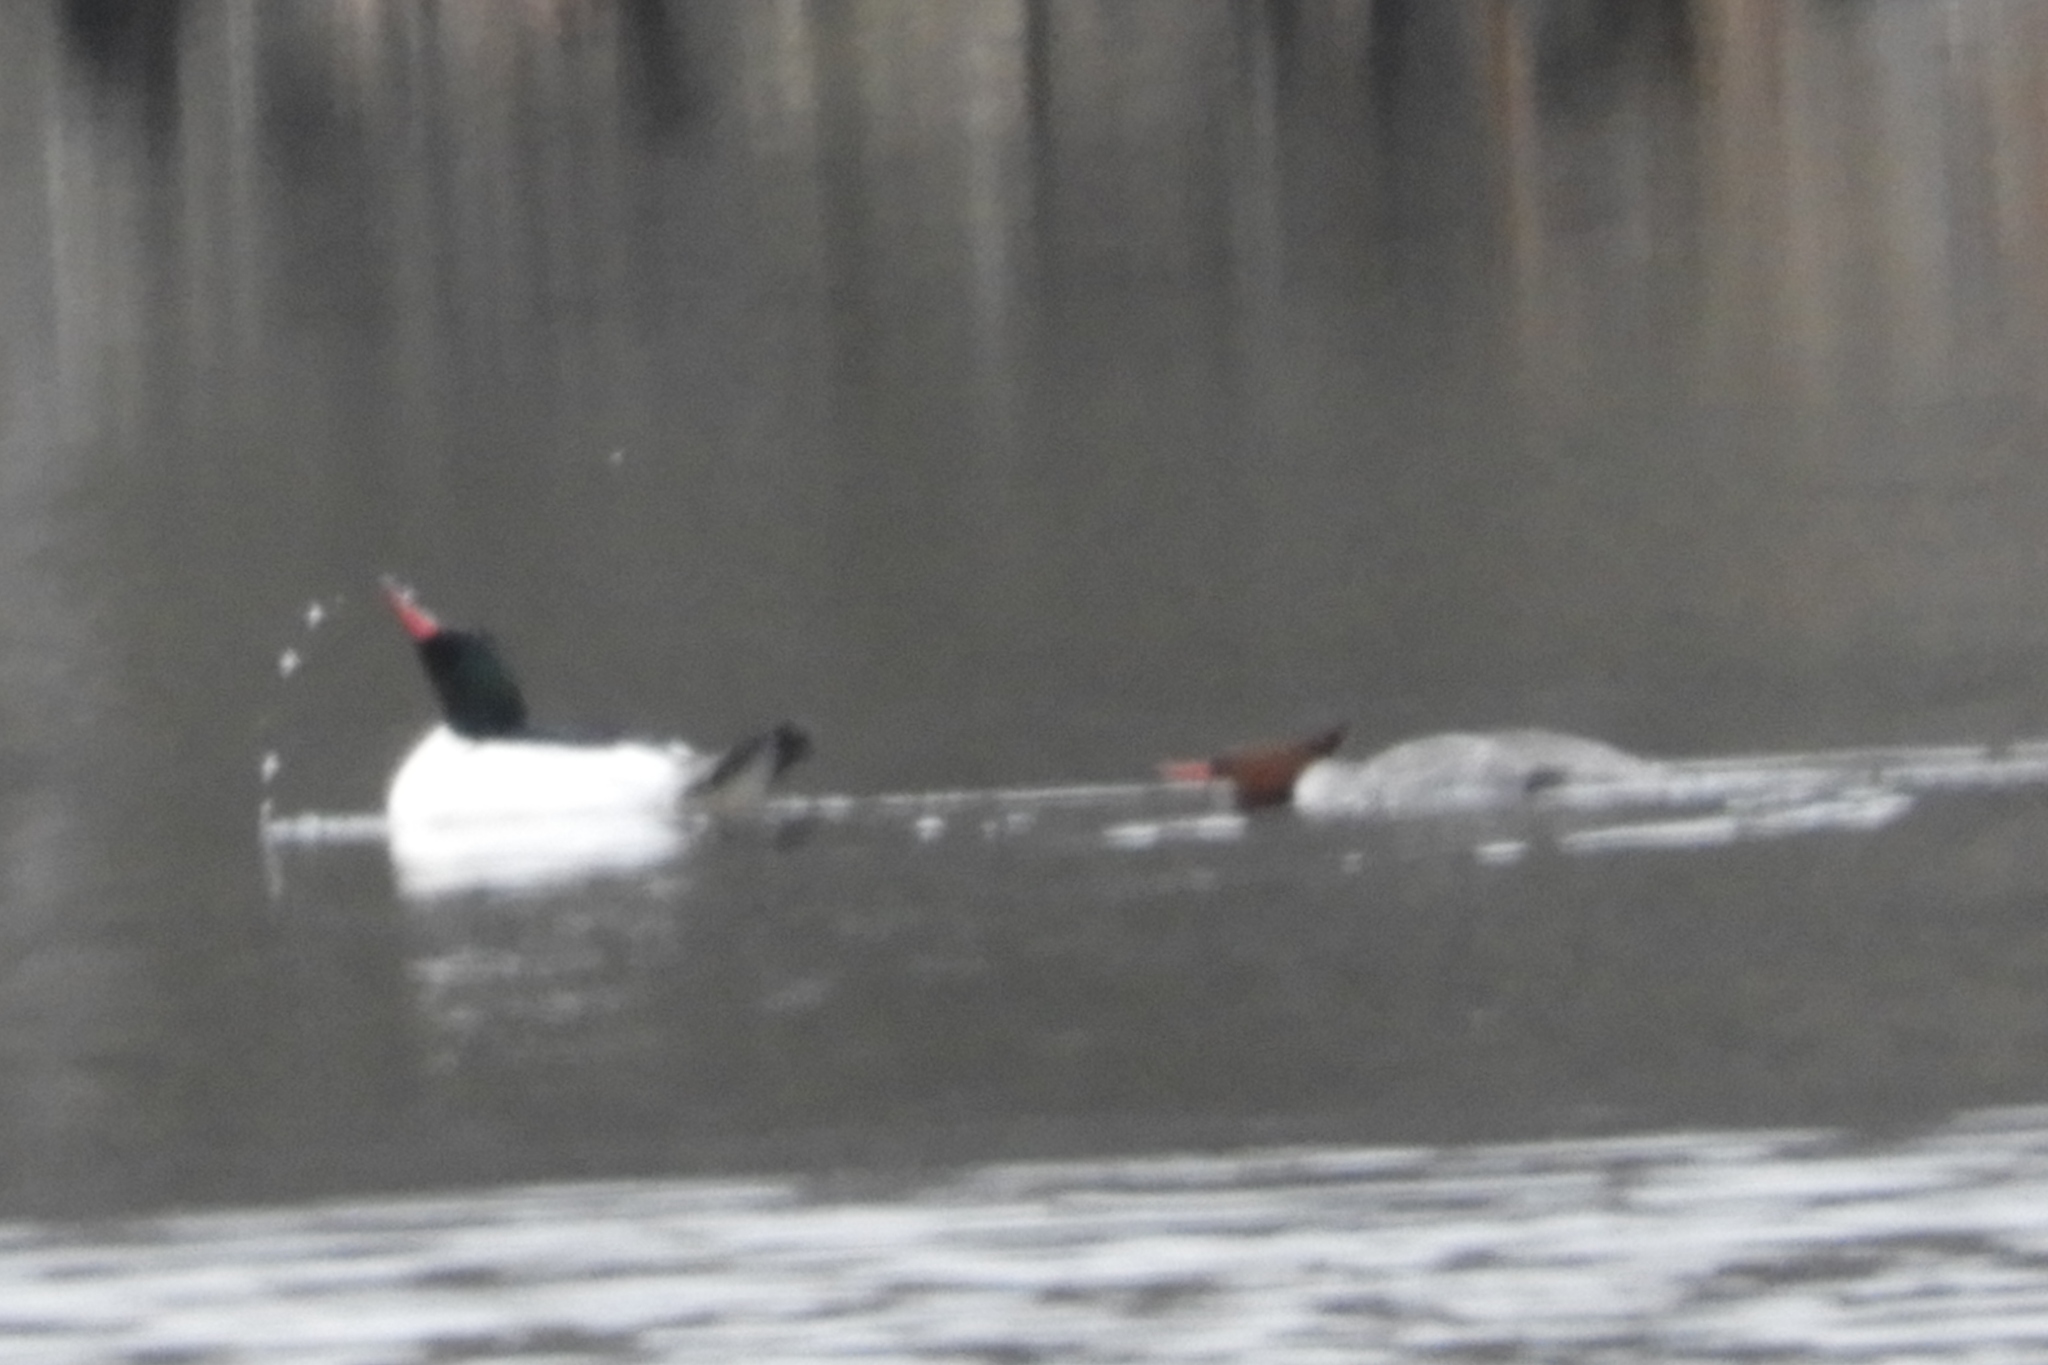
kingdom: Animalia
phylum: Chordata
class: Aves
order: Anseriformes
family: Anatidae
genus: Mergus
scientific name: Mergus merganser
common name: Common merganser
